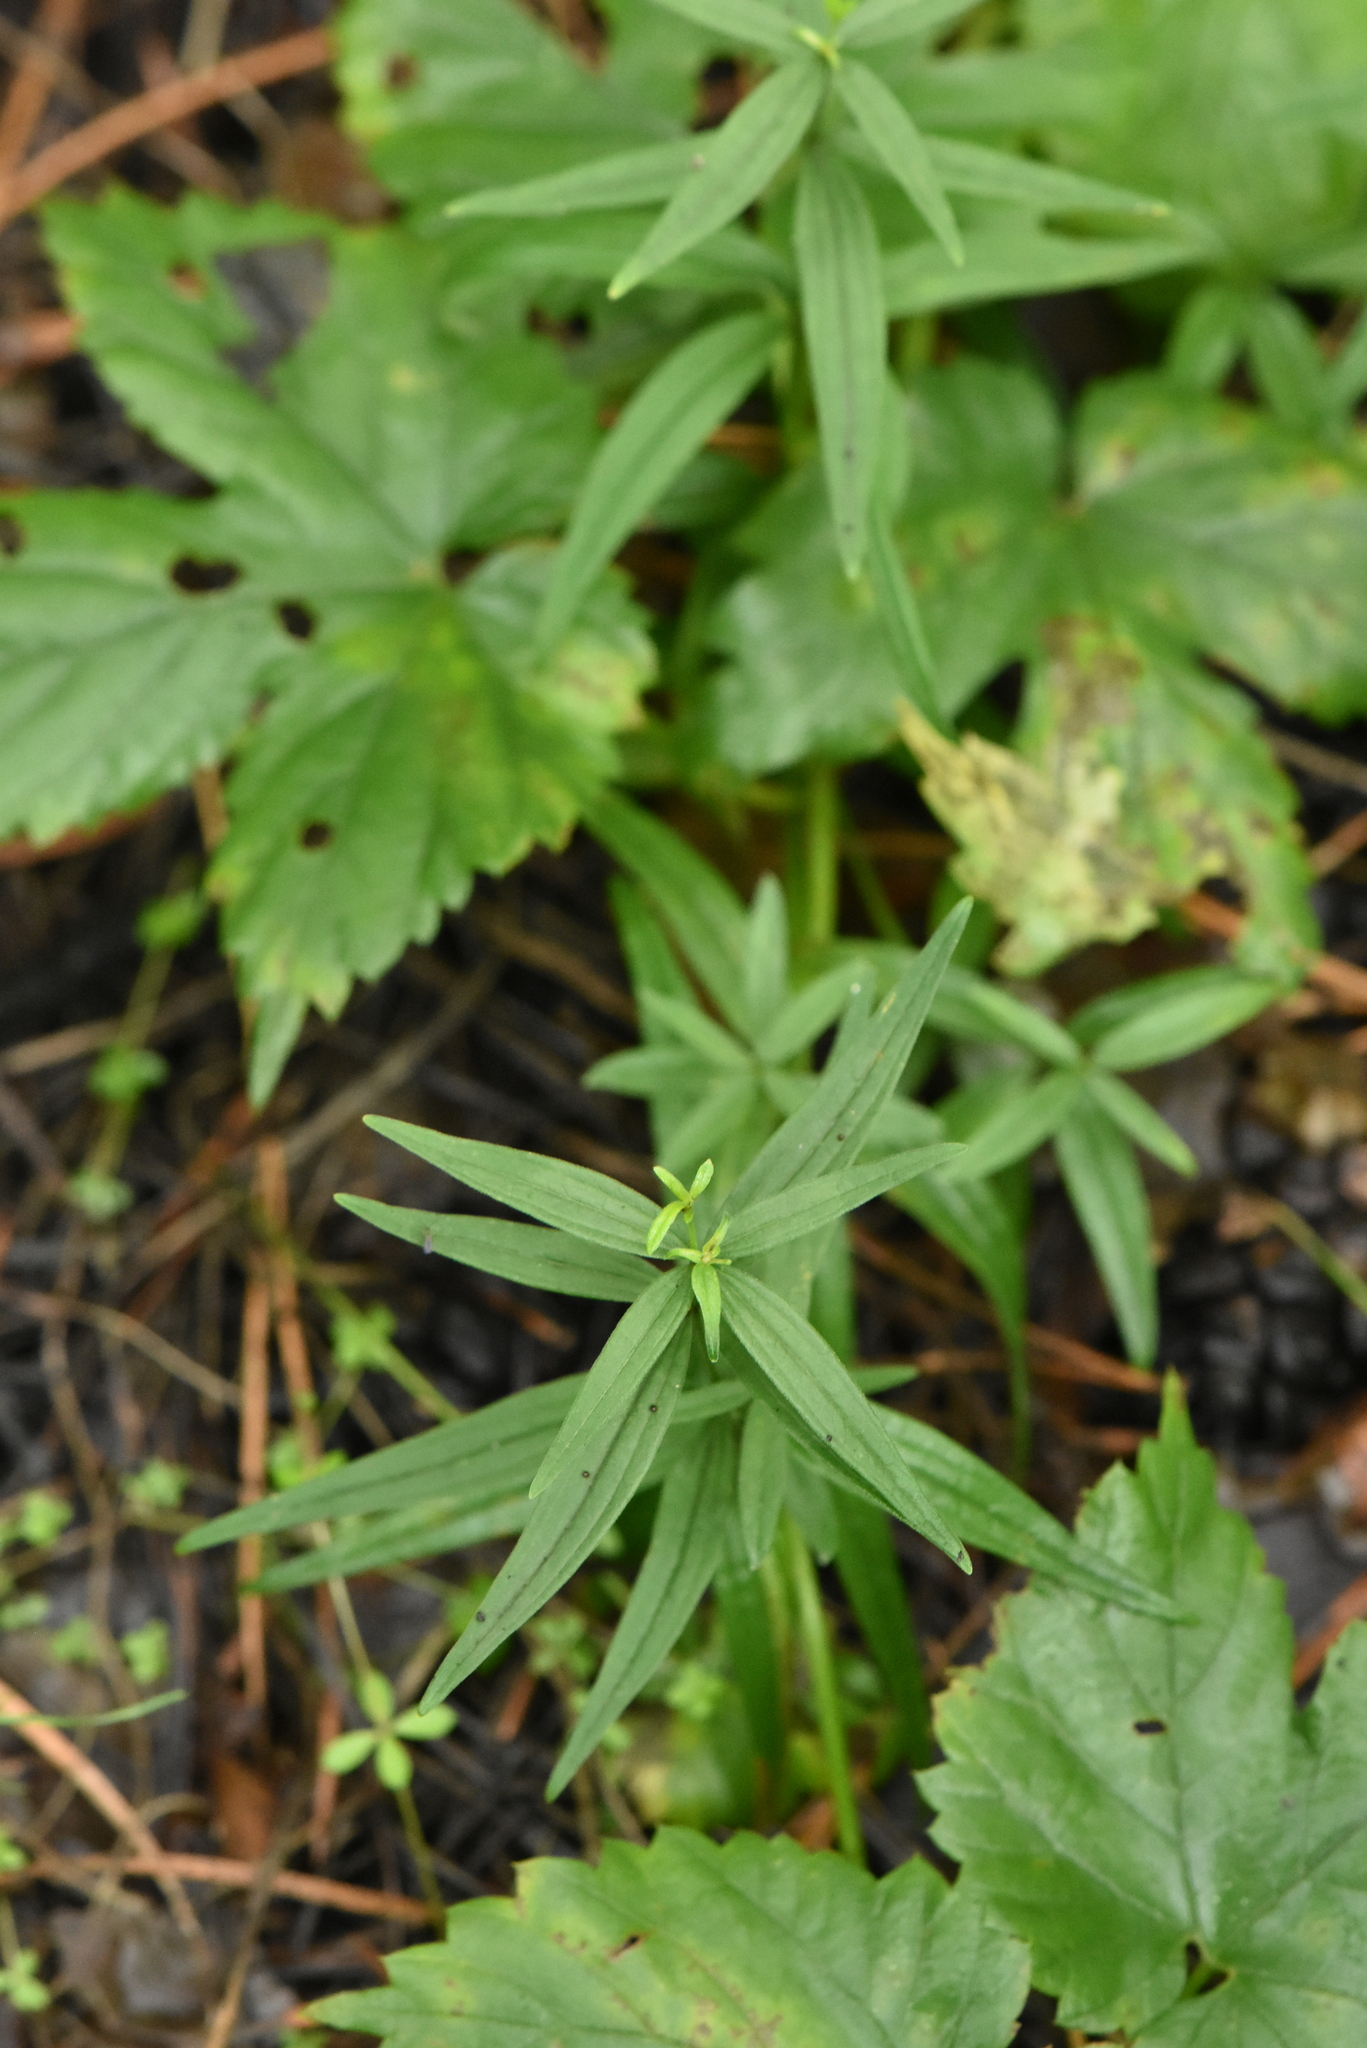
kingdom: Plantae
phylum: Tracheophyta
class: Magnoliopsida
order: Gentianales
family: Rubiaceae
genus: Galium
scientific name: Galium boreale
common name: Northern bedstraw
